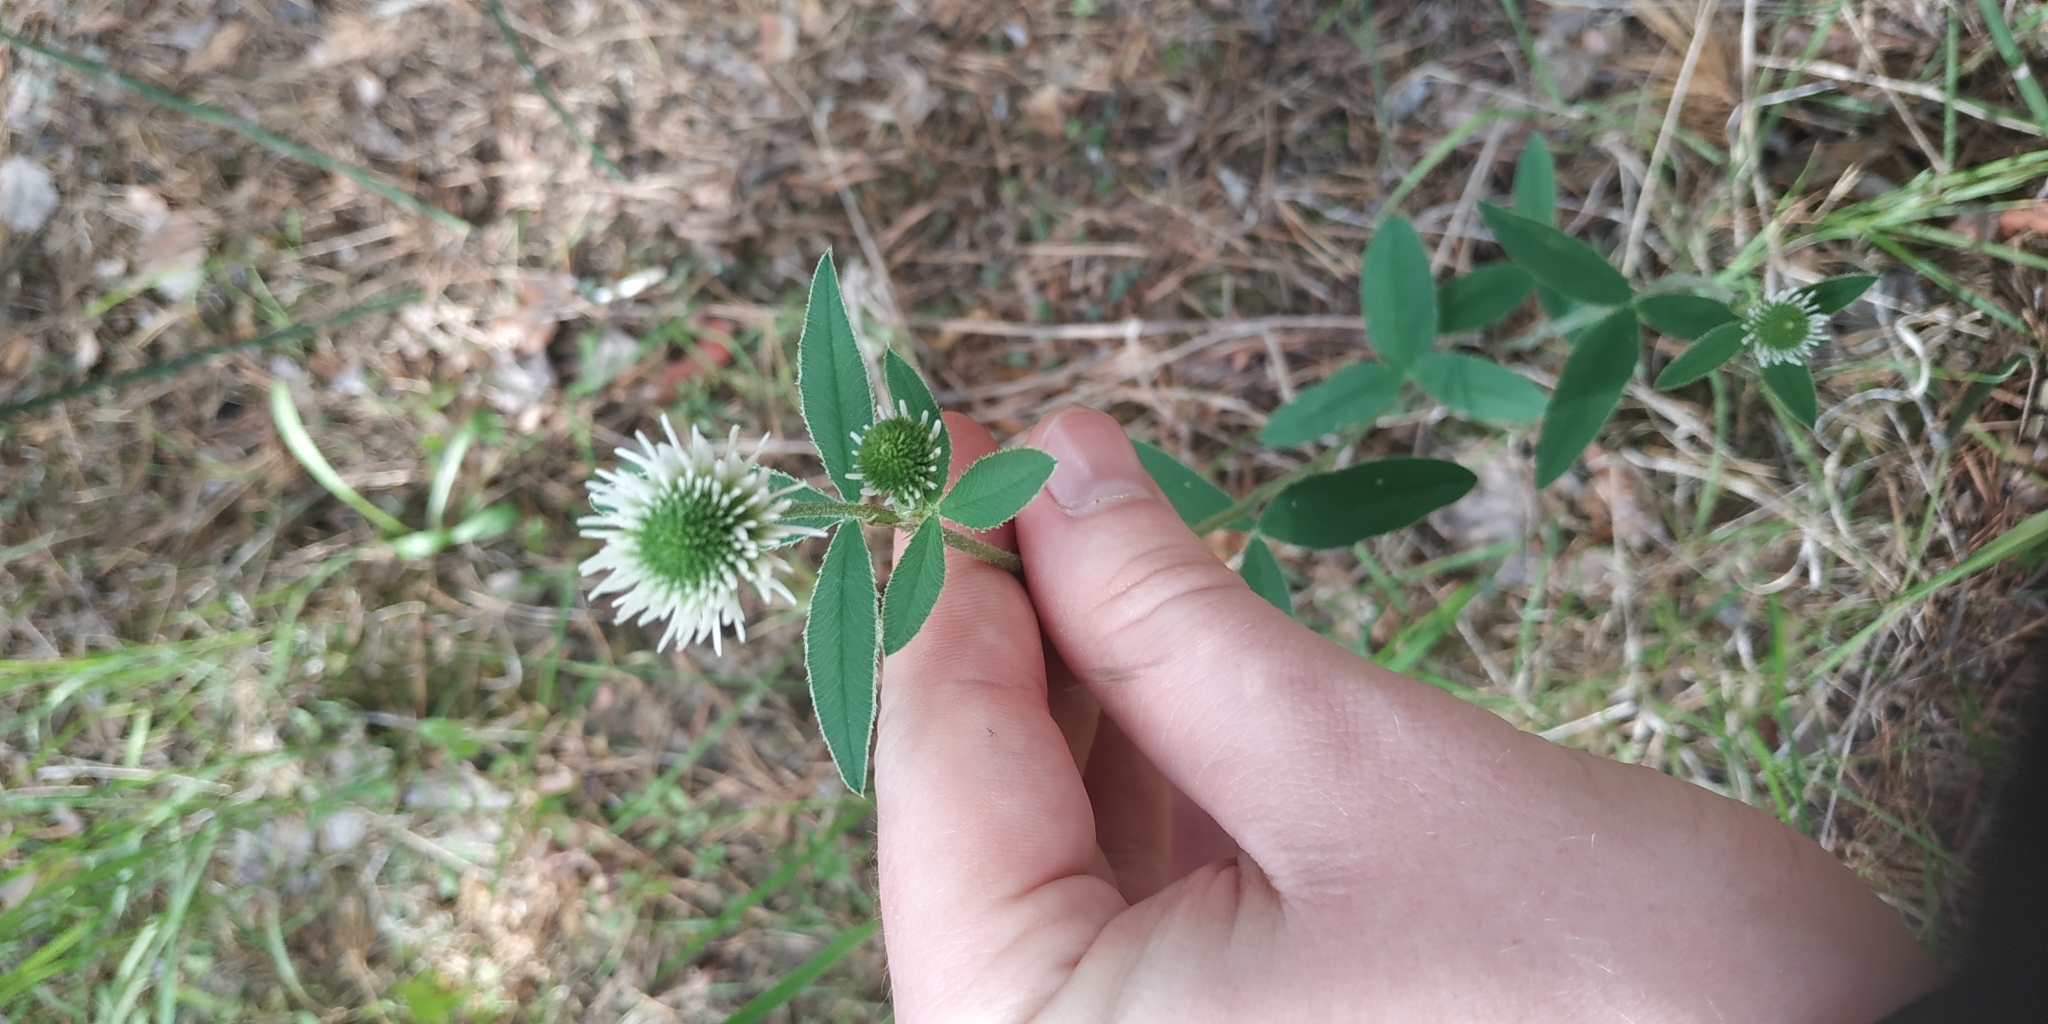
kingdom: Plantae
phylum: Tracheophyta
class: Magnoliopsida
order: Fabales
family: Fabaceae
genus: Trifolium
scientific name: Trifolium montanum
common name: Mountain clover
